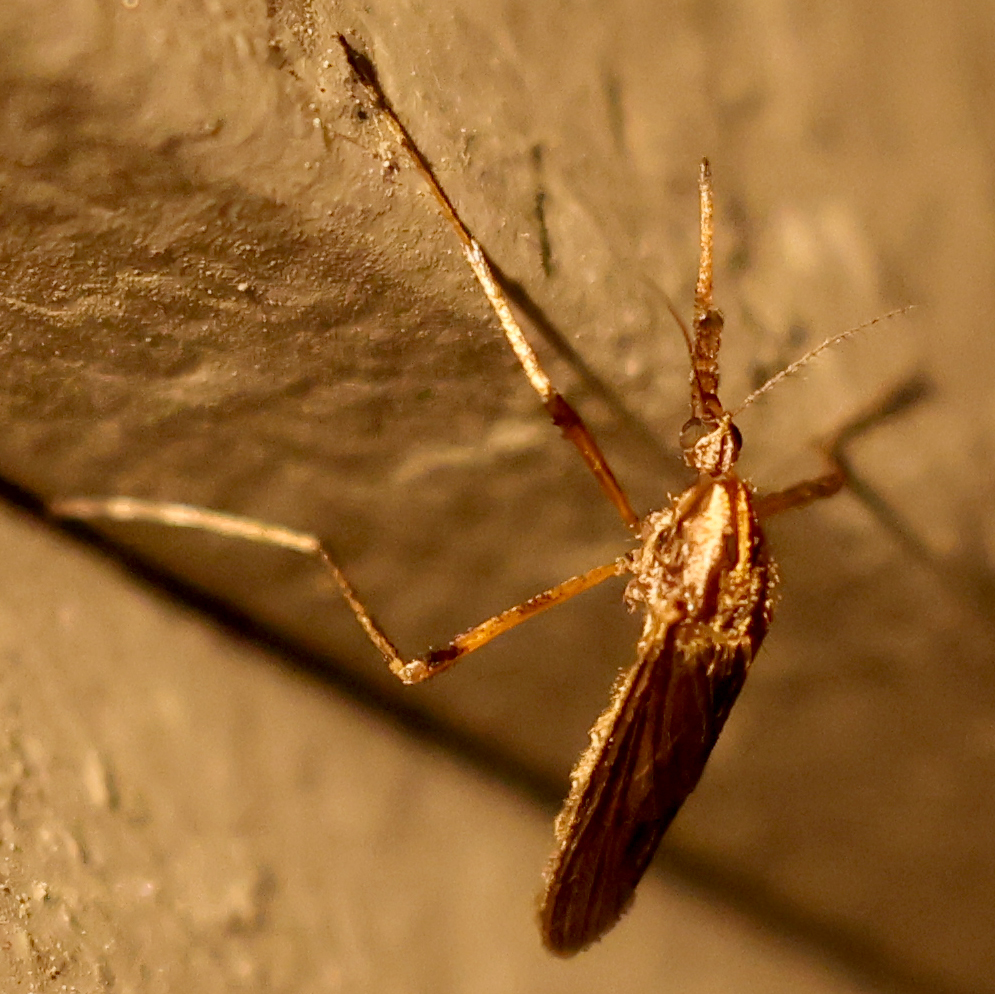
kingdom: Animalia
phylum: Arthropoda
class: Insecta
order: Diptera
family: Culicidae
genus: Psorophora
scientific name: Psorophora ciliata
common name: Gallinipper
